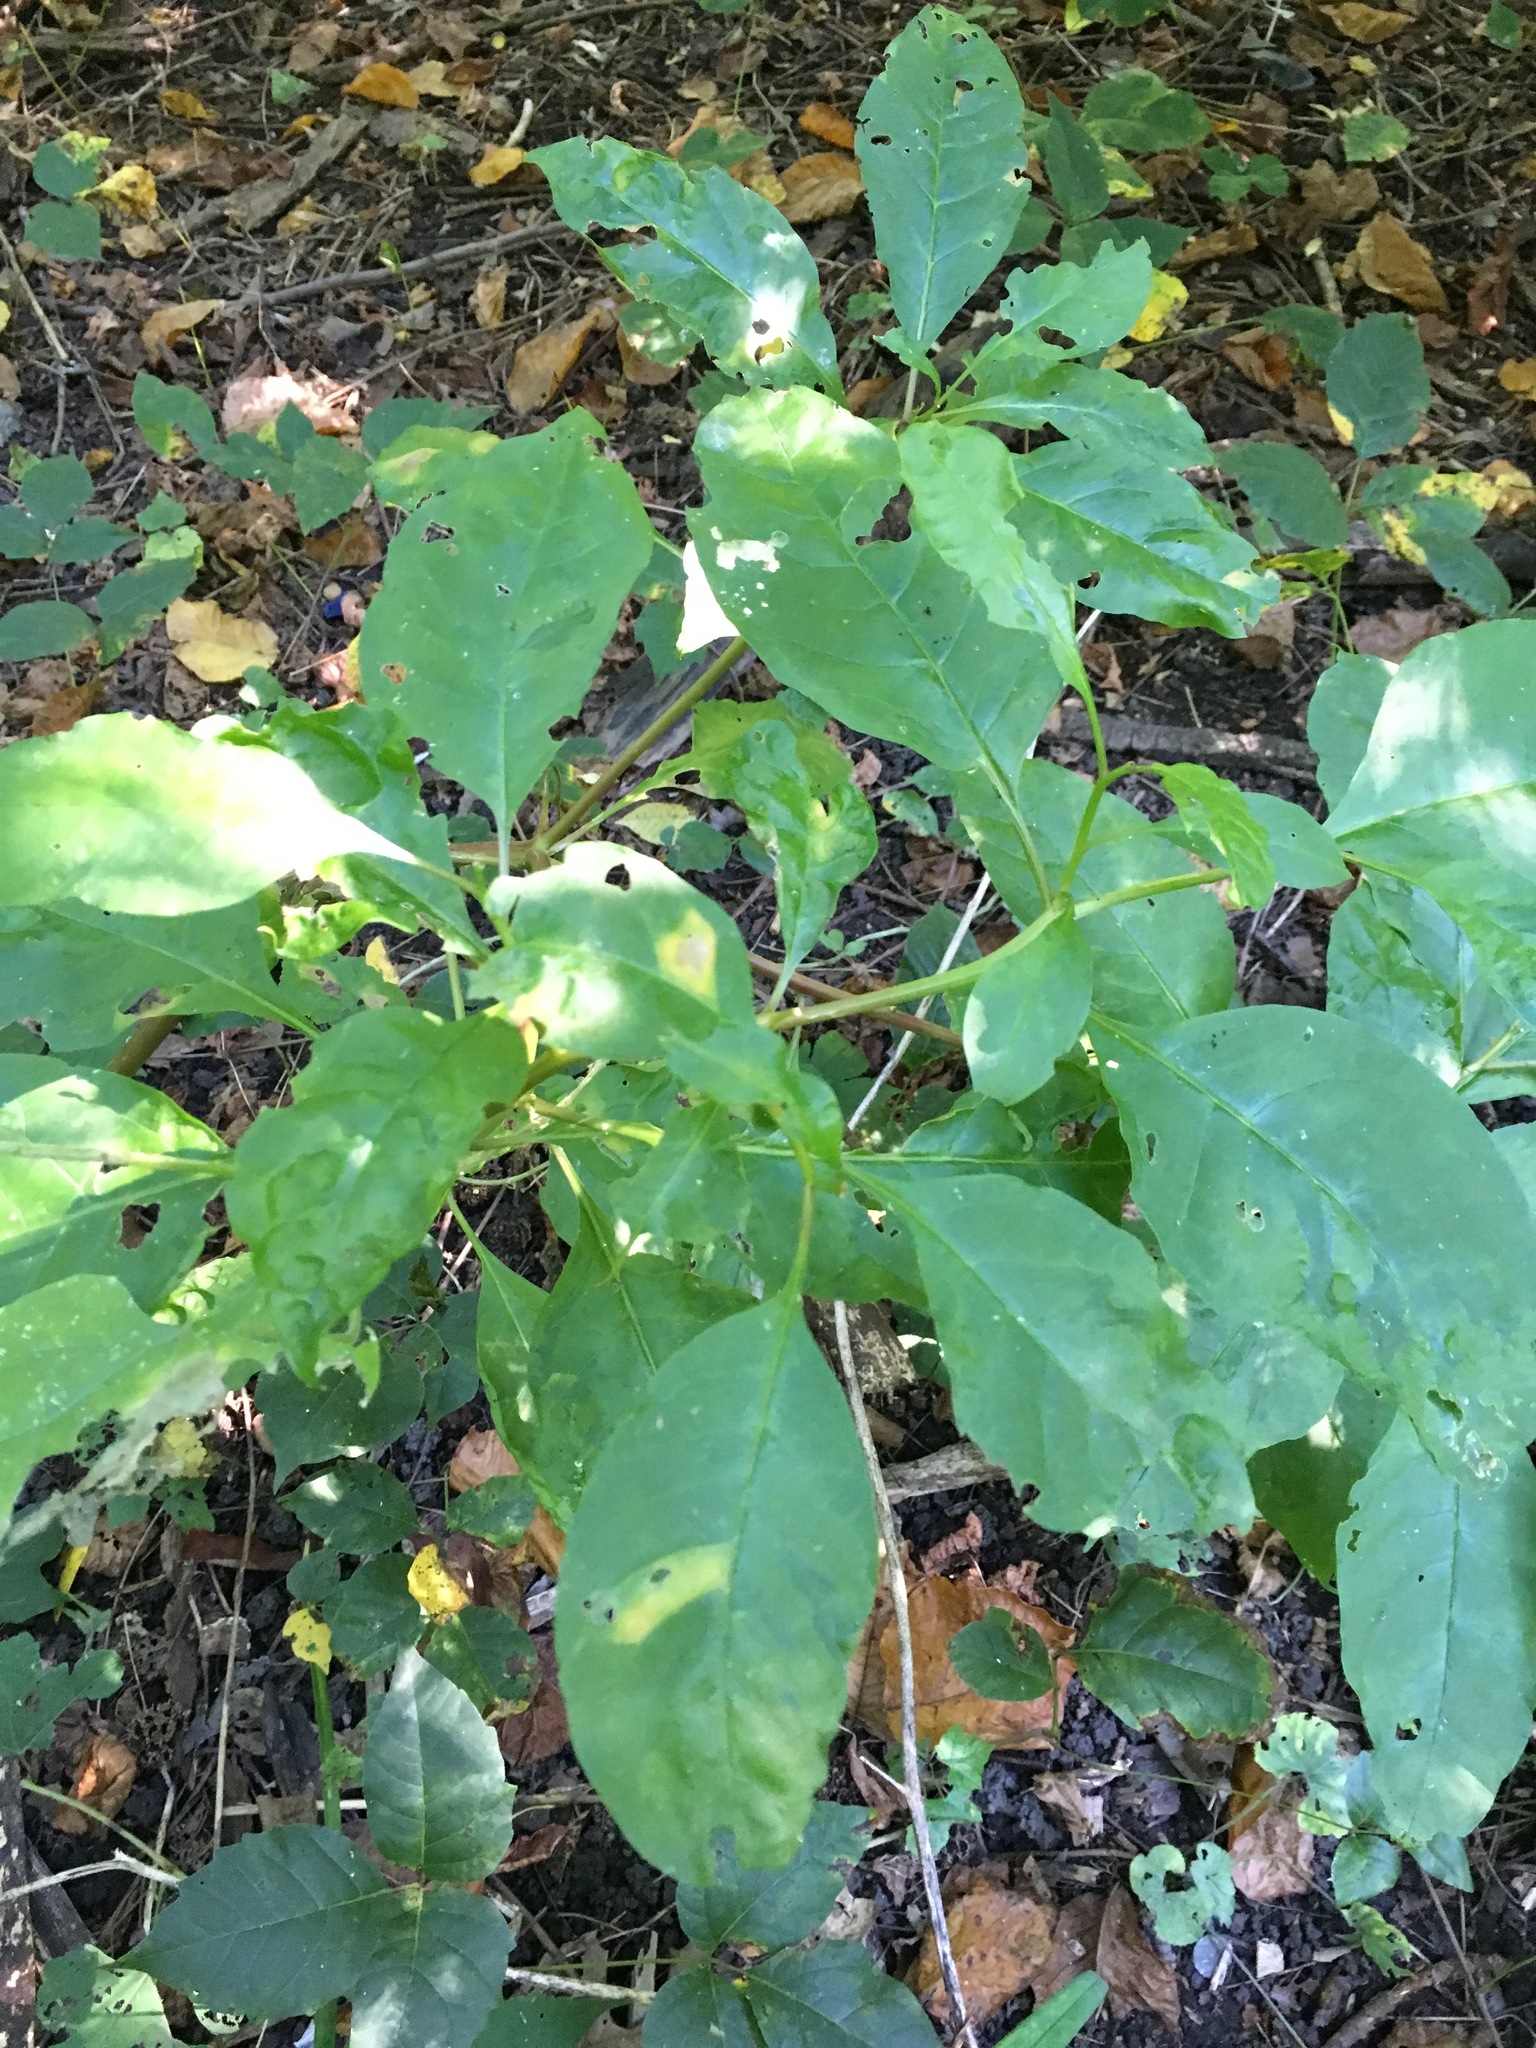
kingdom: Plantae
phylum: Tracheophyta
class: Magnoliopsida
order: Caryophyllales
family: Phytolaccaceae
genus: Phytolacca
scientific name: Phytolacca americana
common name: American pokeweed
